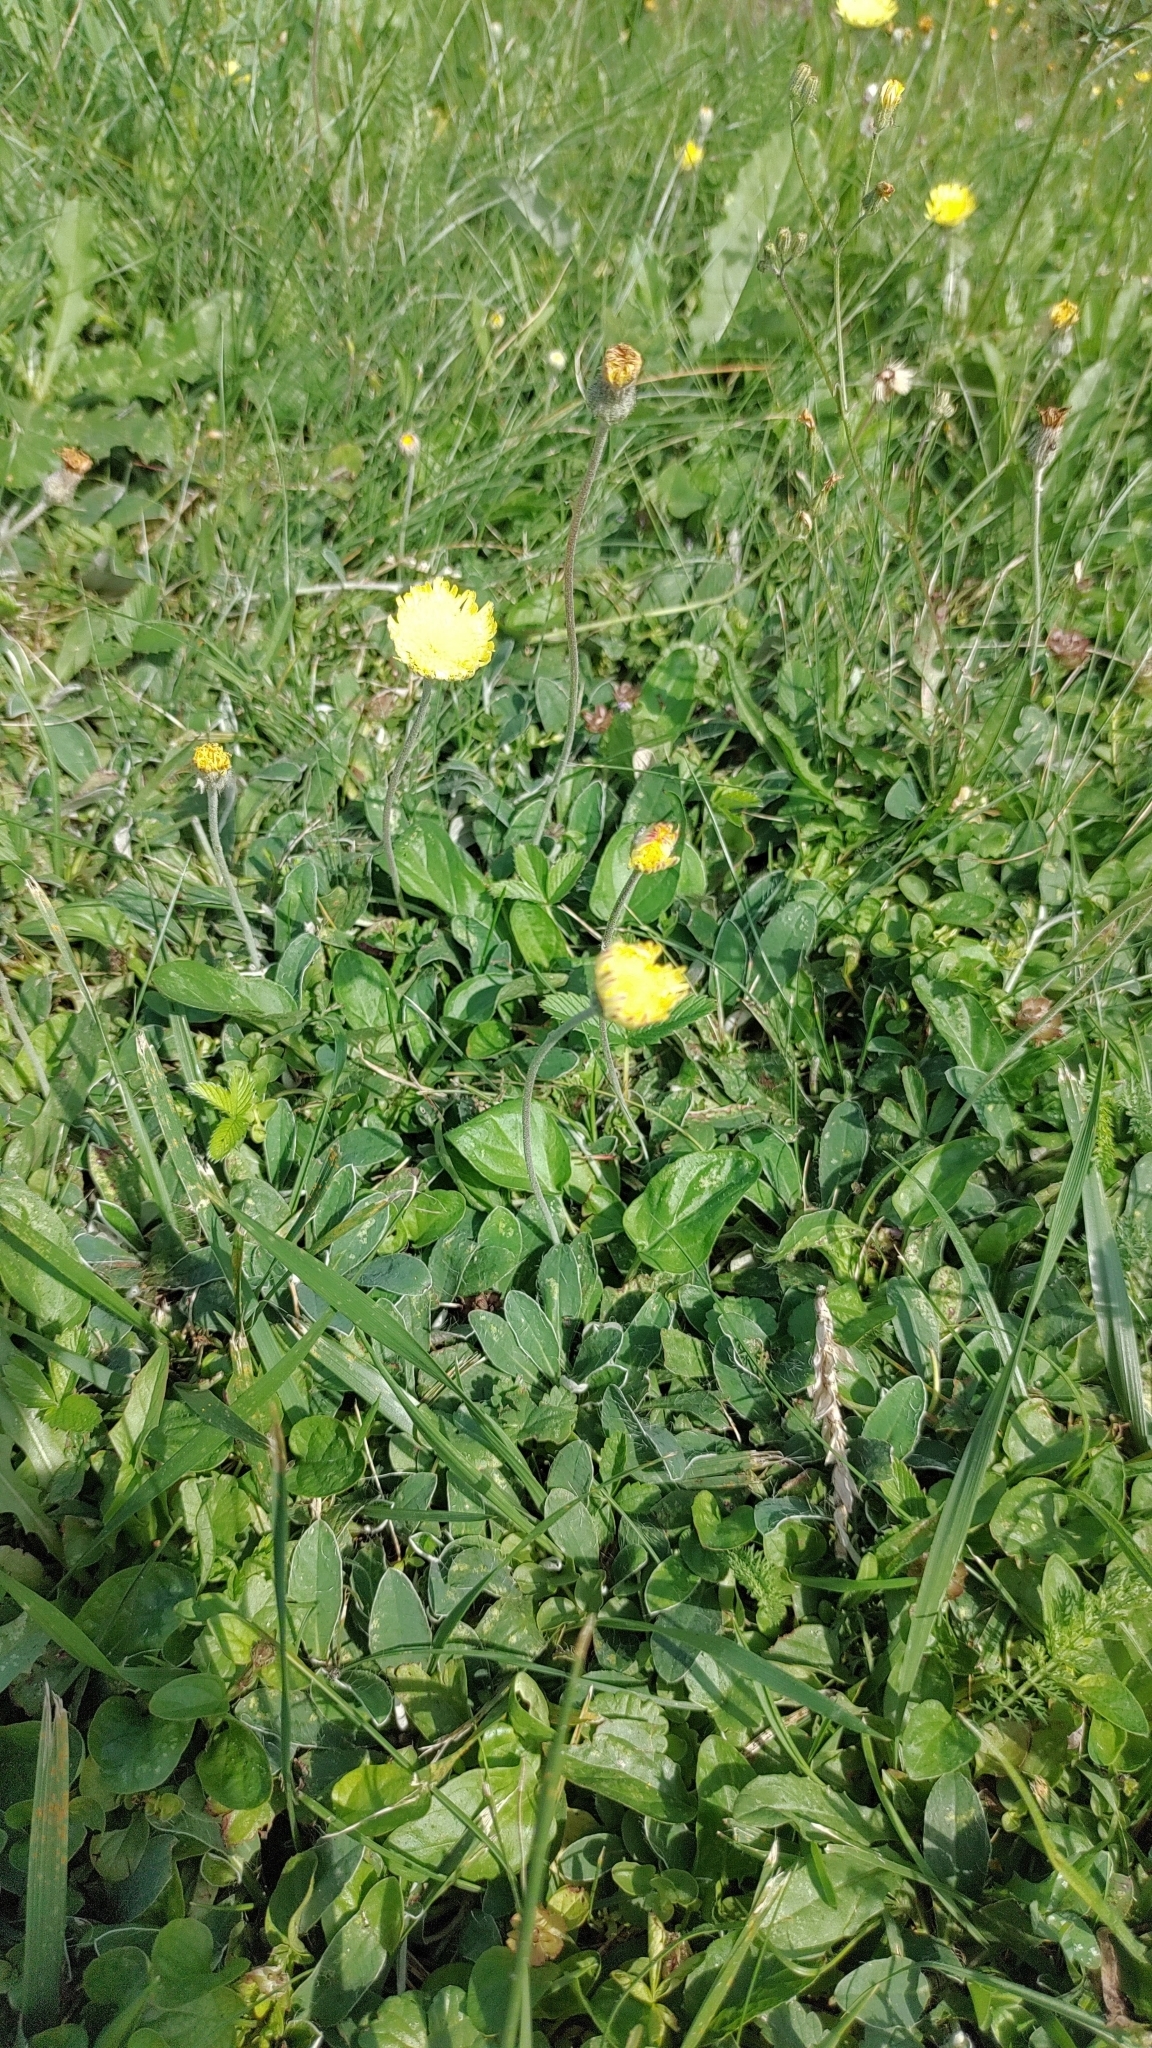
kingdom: Plantae
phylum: Tracheophyta
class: Magnoliopsida
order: Asterales
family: Asteraceae
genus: Pilosella
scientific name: Pilosella officinarum
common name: Mouse-ear hawkweed
